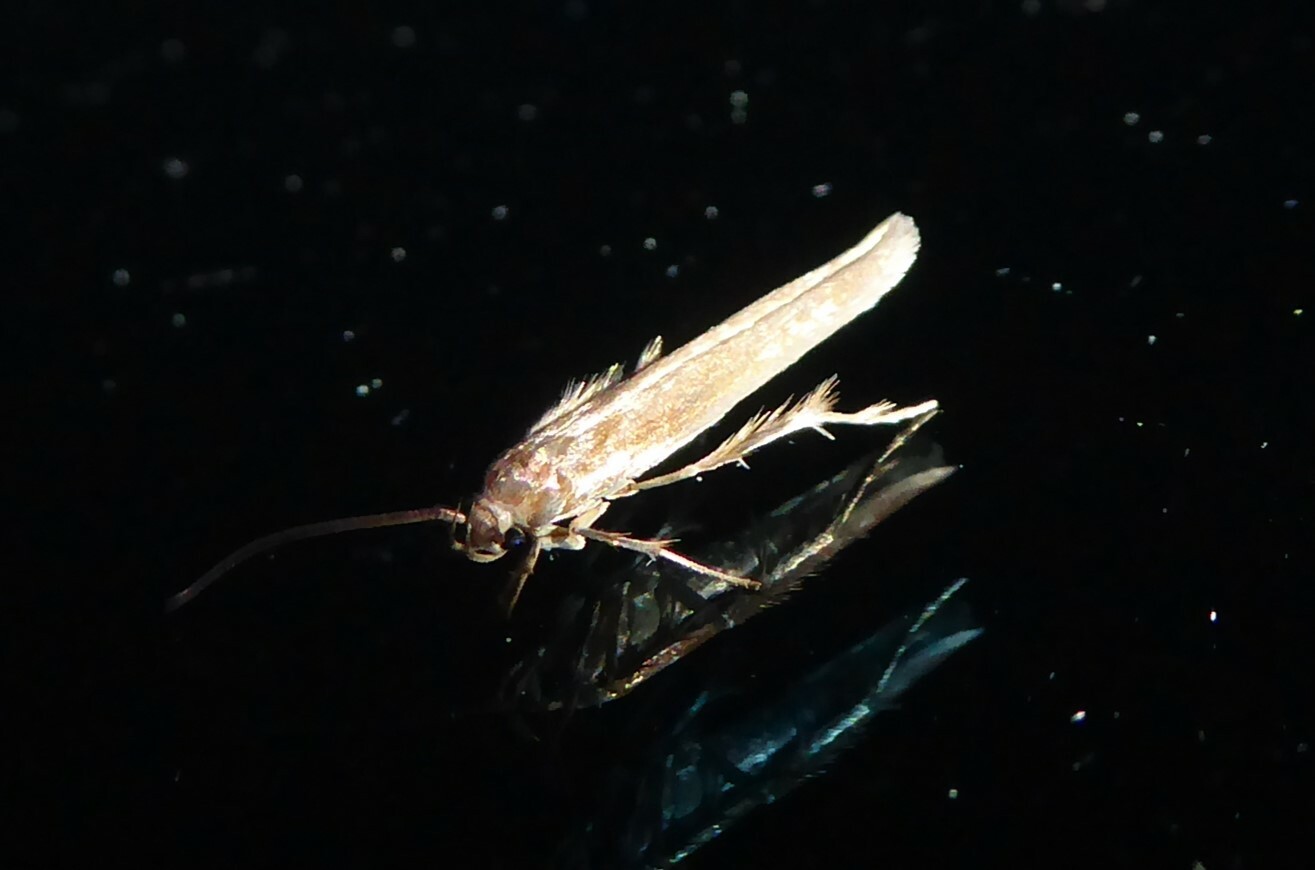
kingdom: Animalia
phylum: Arthropoda
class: Insecta
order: Lepidoptera
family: Stathmopodidae
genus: Stathmopoda
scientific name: Stathmopoda aposema
